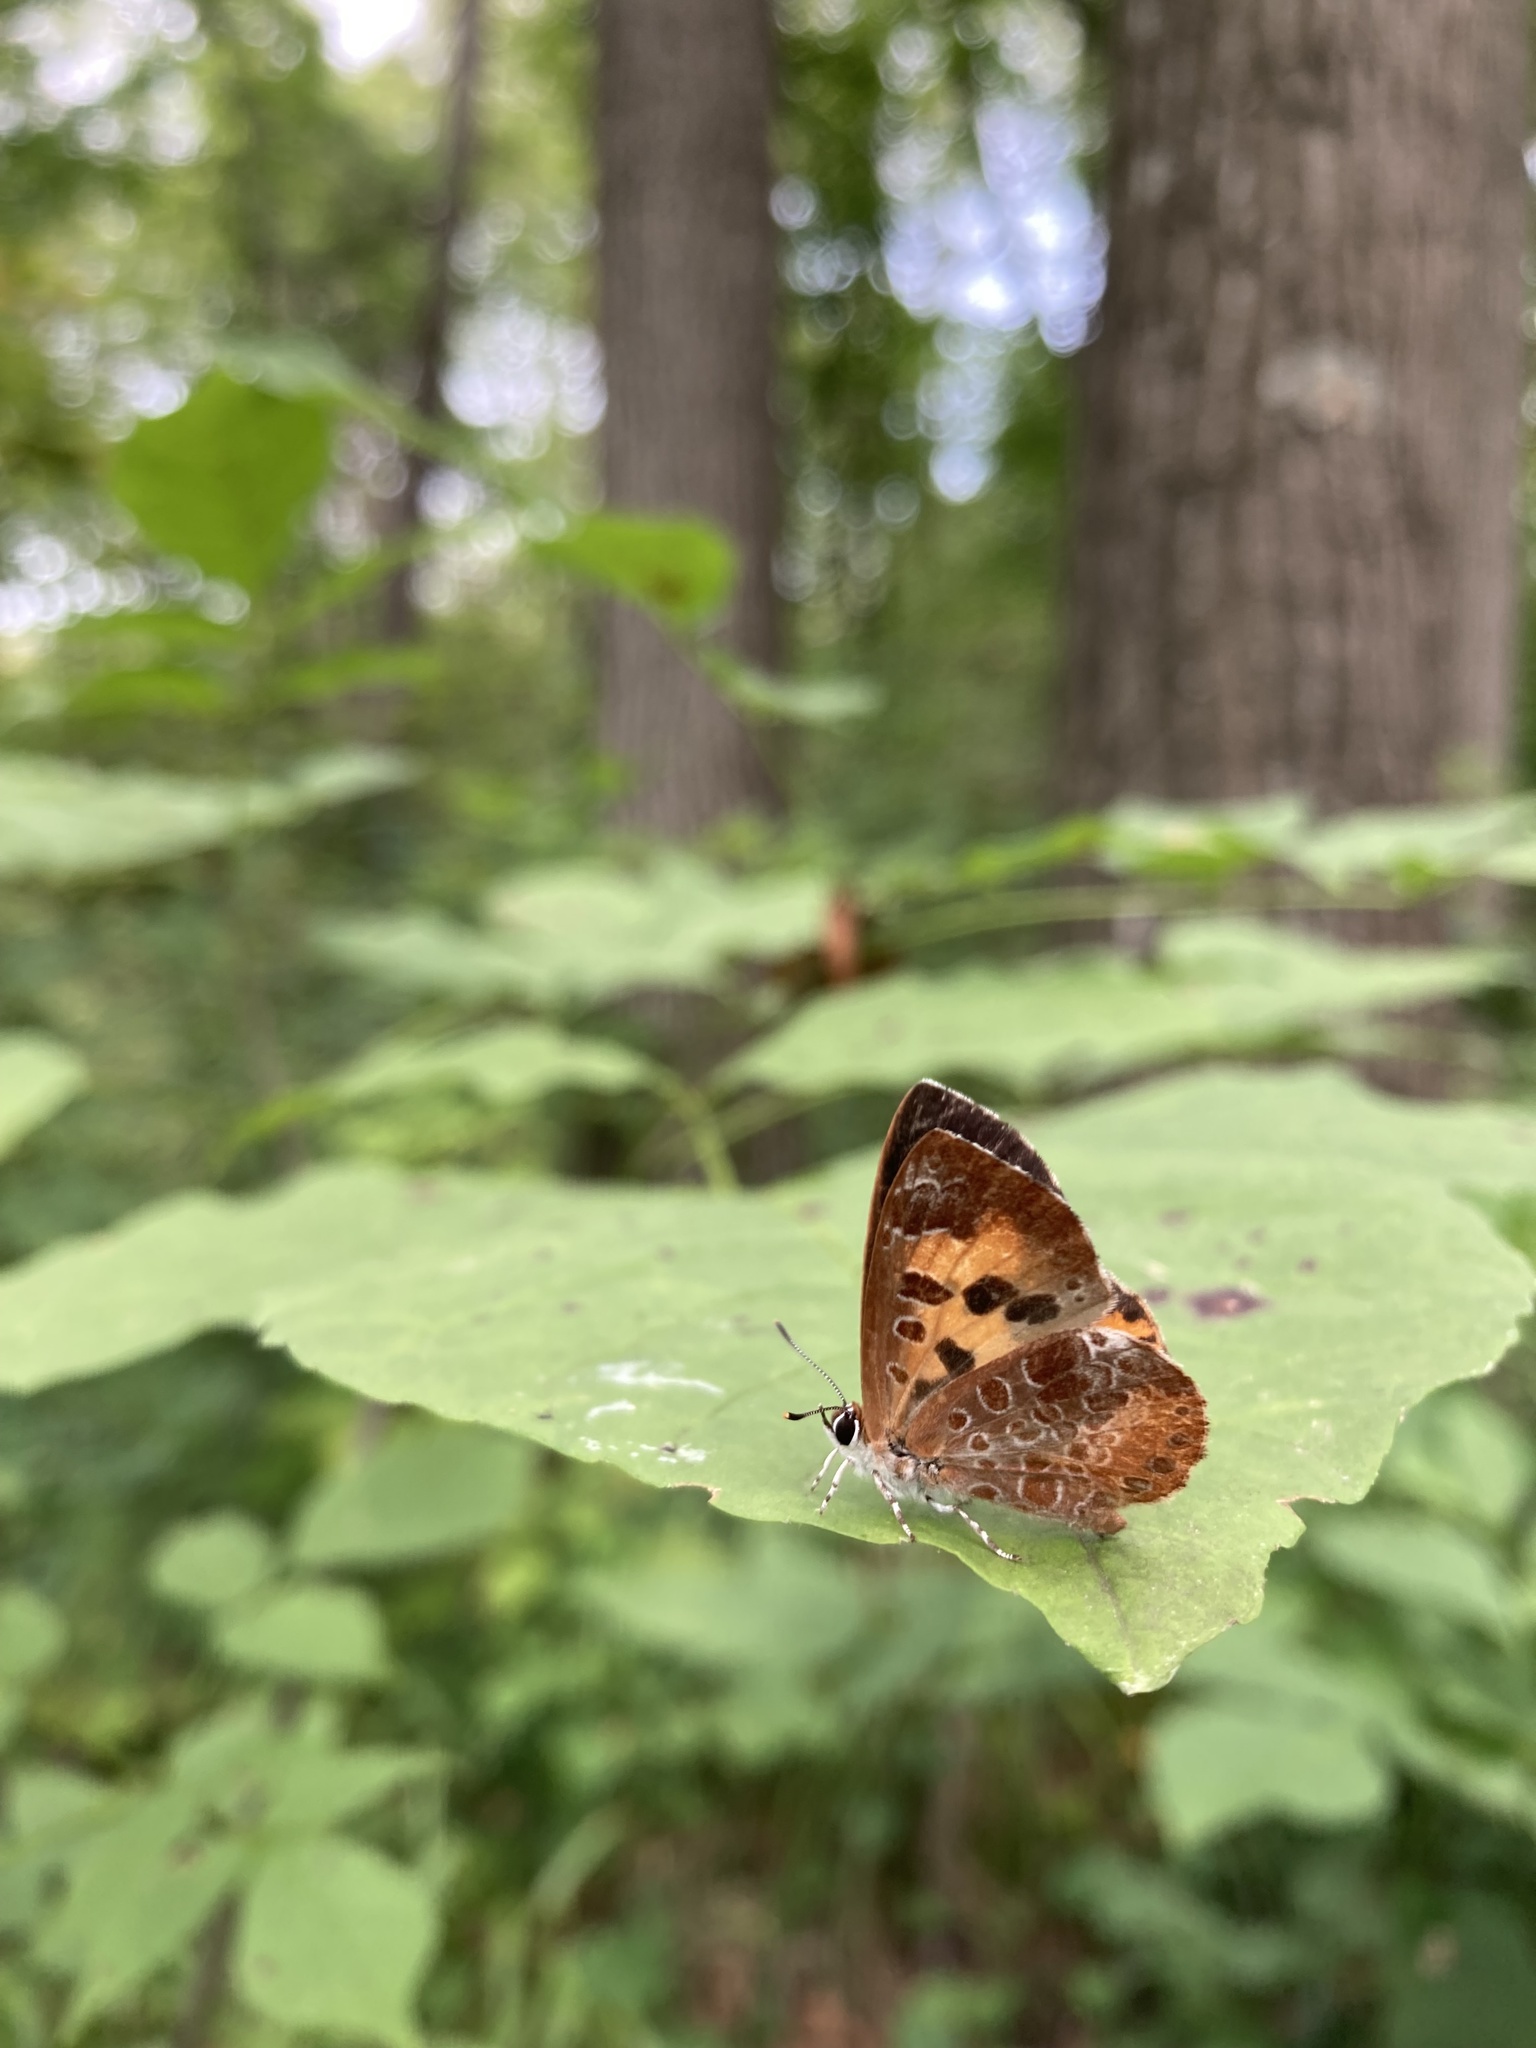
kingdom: Animalia
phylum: Arthropoda
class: Insecta
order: Lepidoptera
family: Lycaenidae
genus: Feniseca
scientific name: Feniseca tarquinius
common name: Harvester
